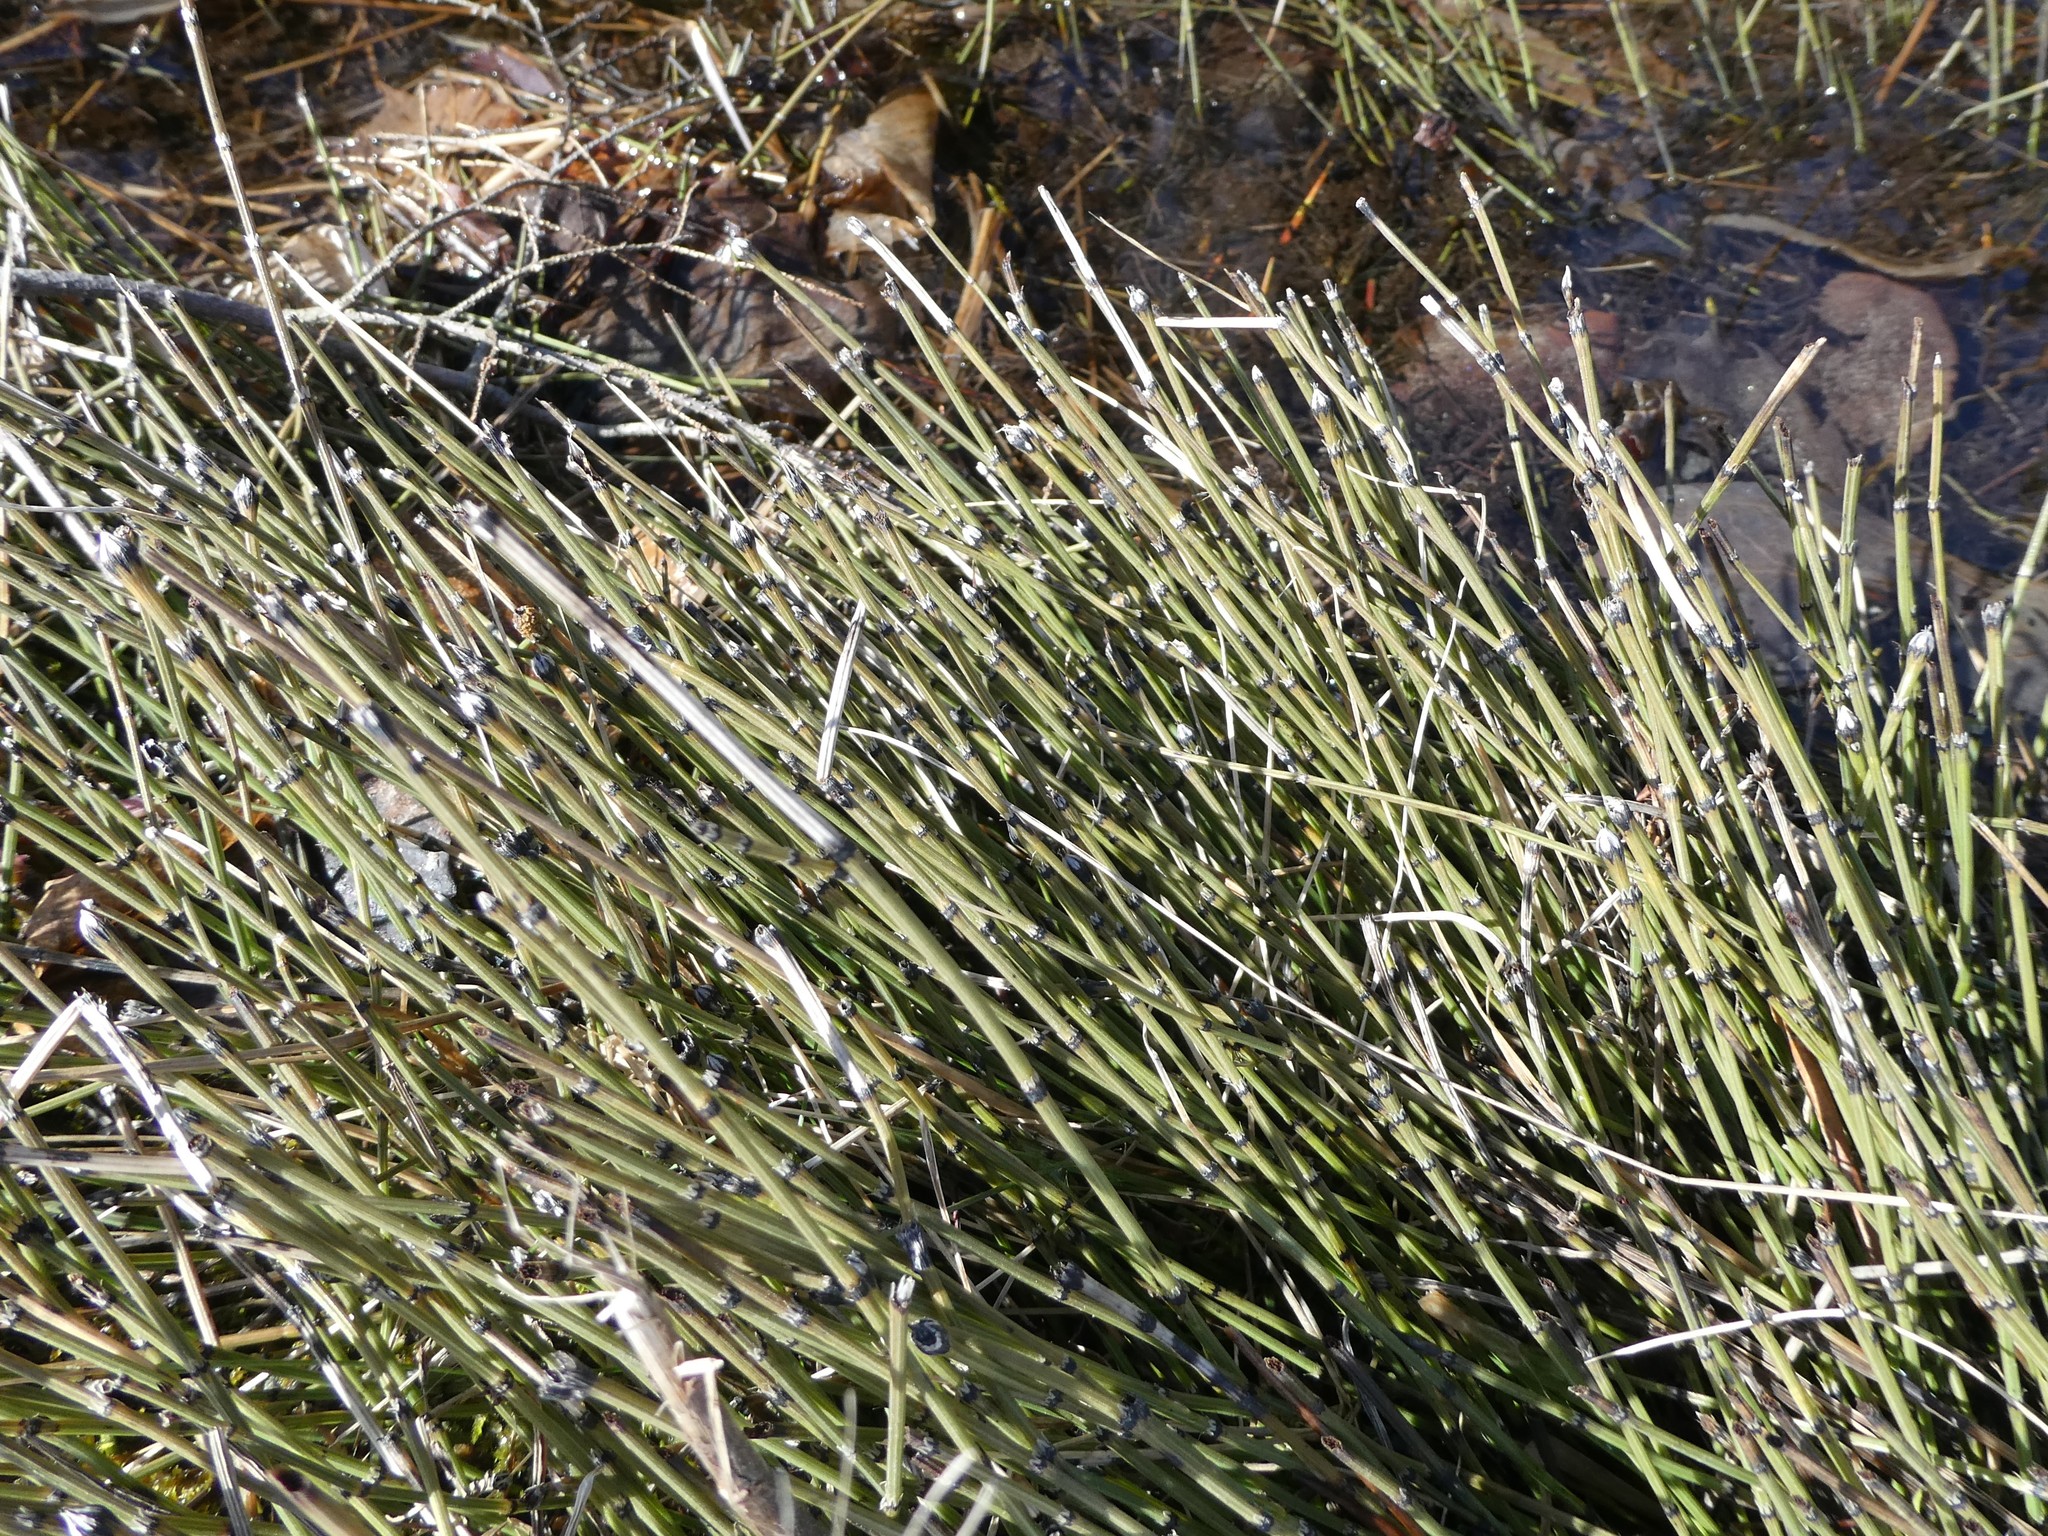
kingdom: Plantae
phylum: Tracheophyta
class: Polypodiopsida
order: Equisetales
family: Equisetaceae
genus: Equisetum
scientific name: Equisetum variegatum
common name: Variegated horsetail
